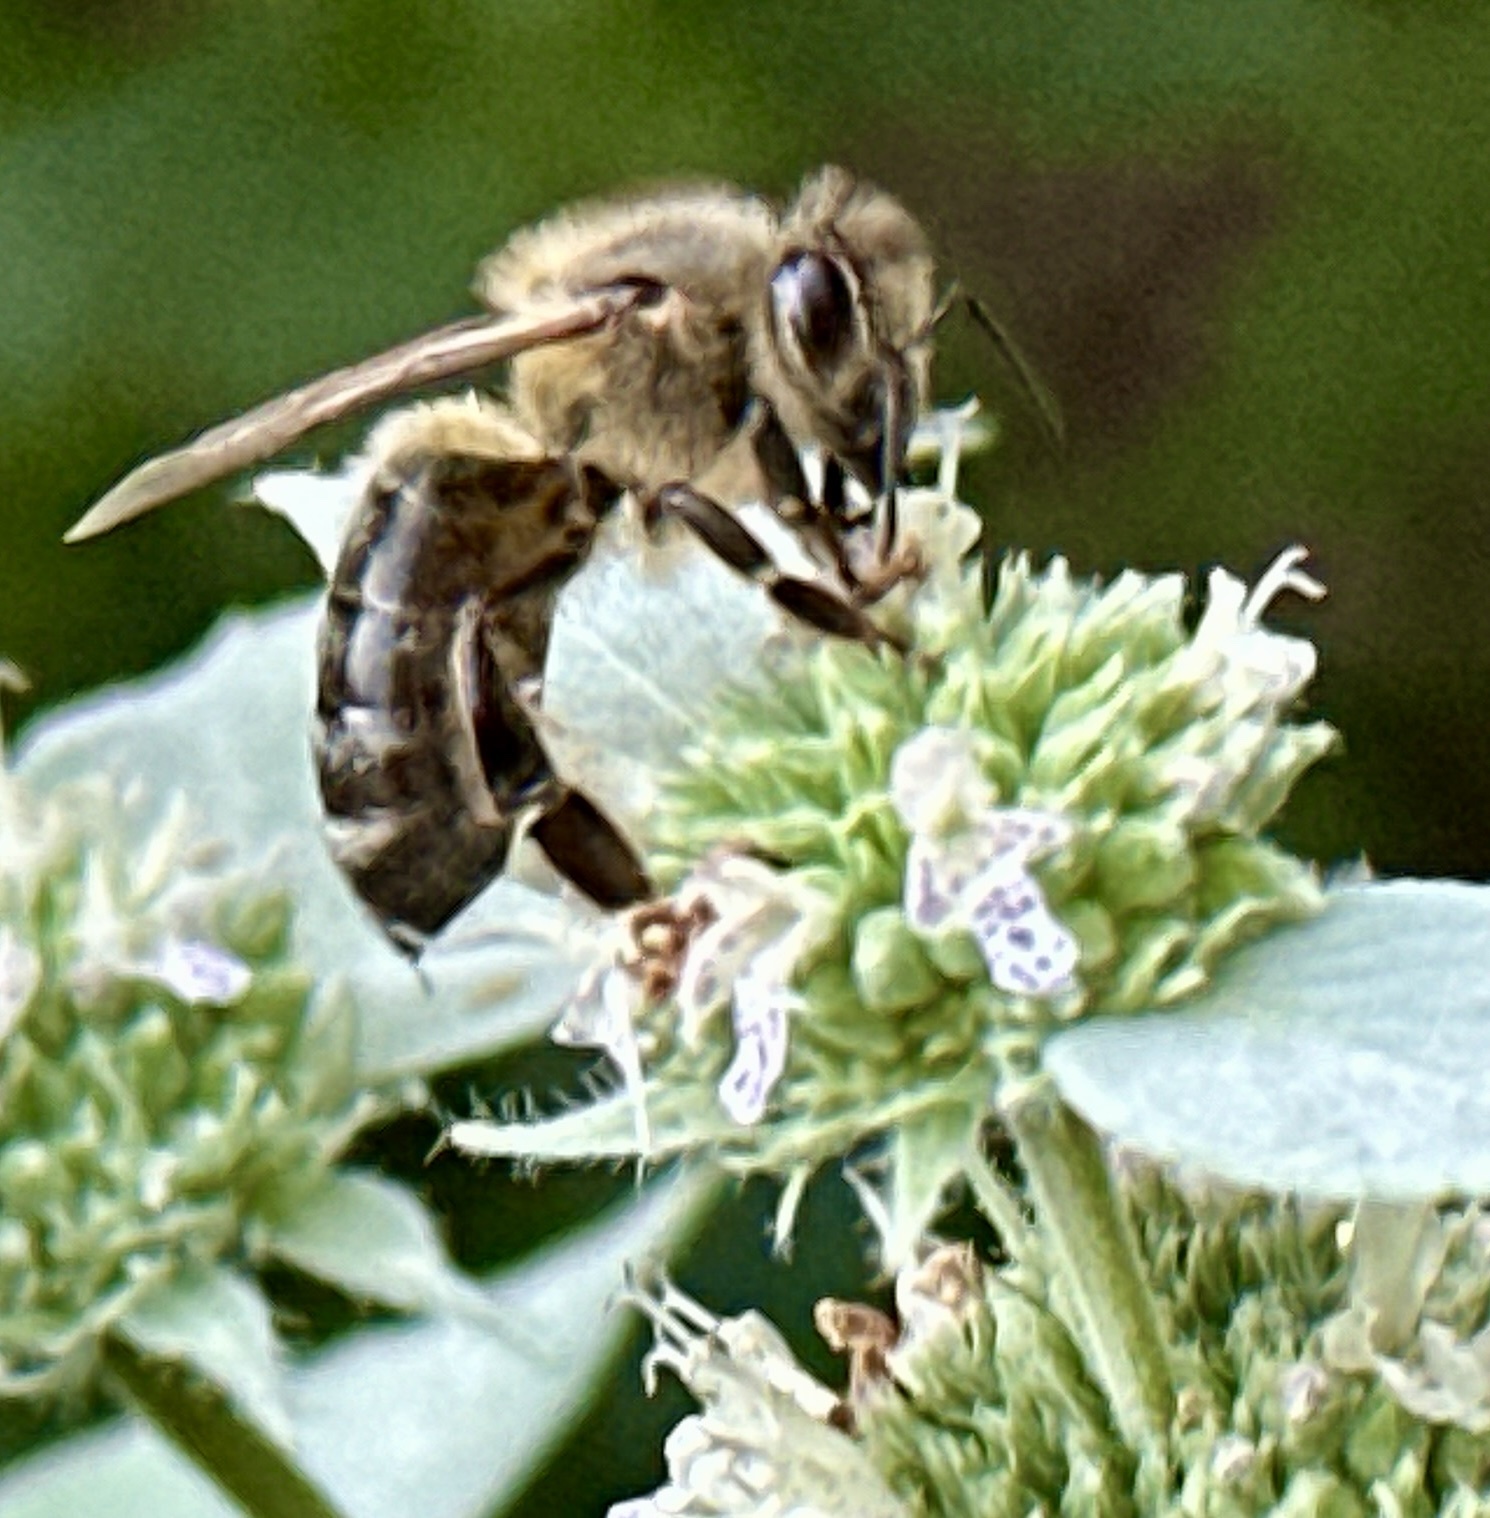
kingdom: Animalia
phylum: Arthropoda
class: Insecta
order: Hymenoptera
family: Apidae
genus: Apis
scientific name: Apis mellifera
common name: Honey bee
